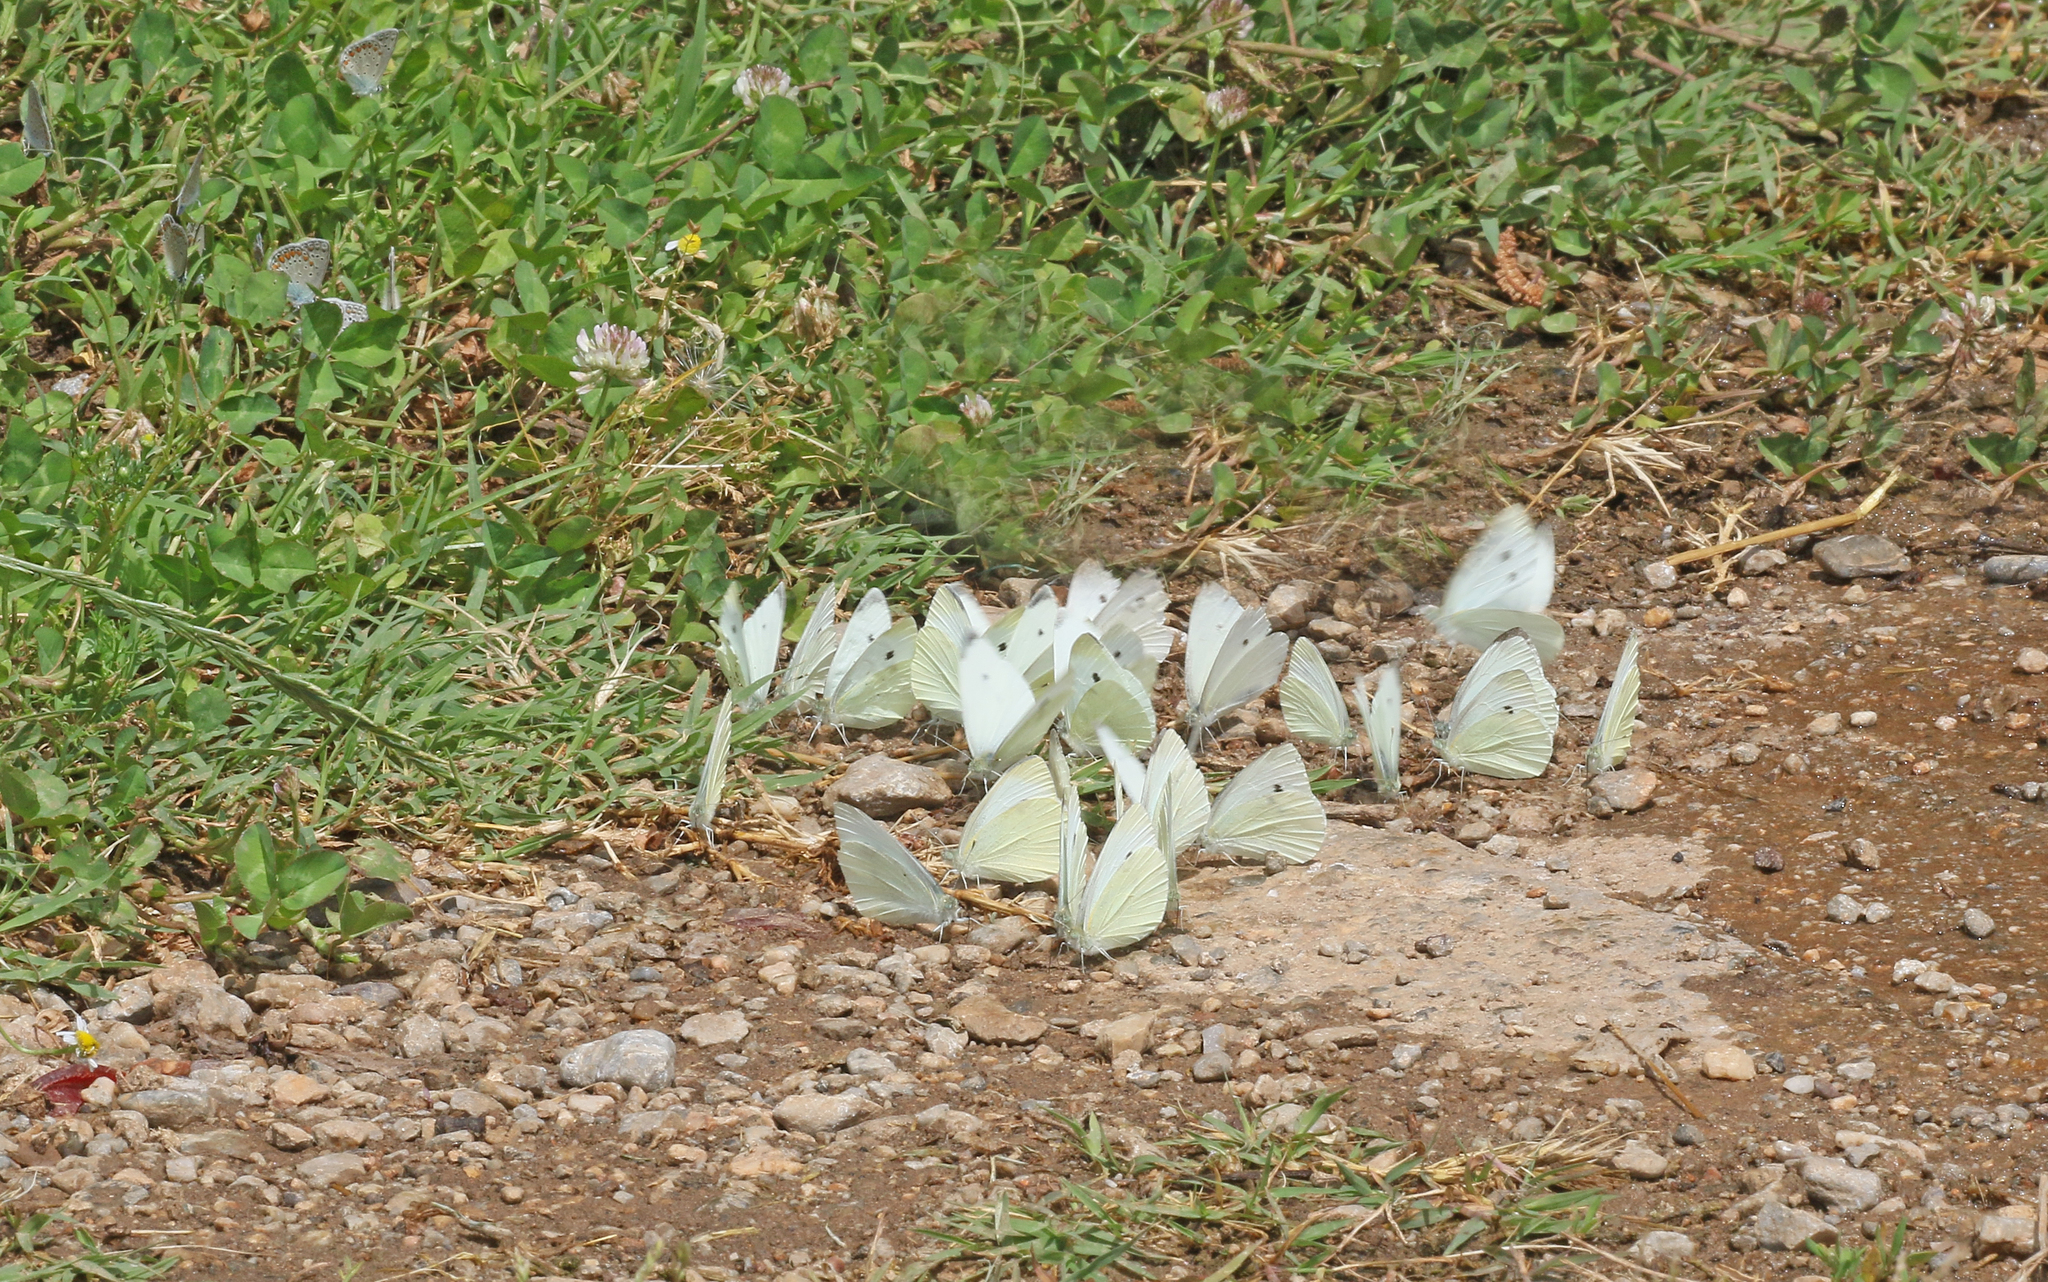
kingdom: Animalia
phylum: Arthropoda
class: Insecta
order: Lepidoptera
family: Pieridae
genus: Pieris
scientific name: Pieris rapae
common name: Small white
